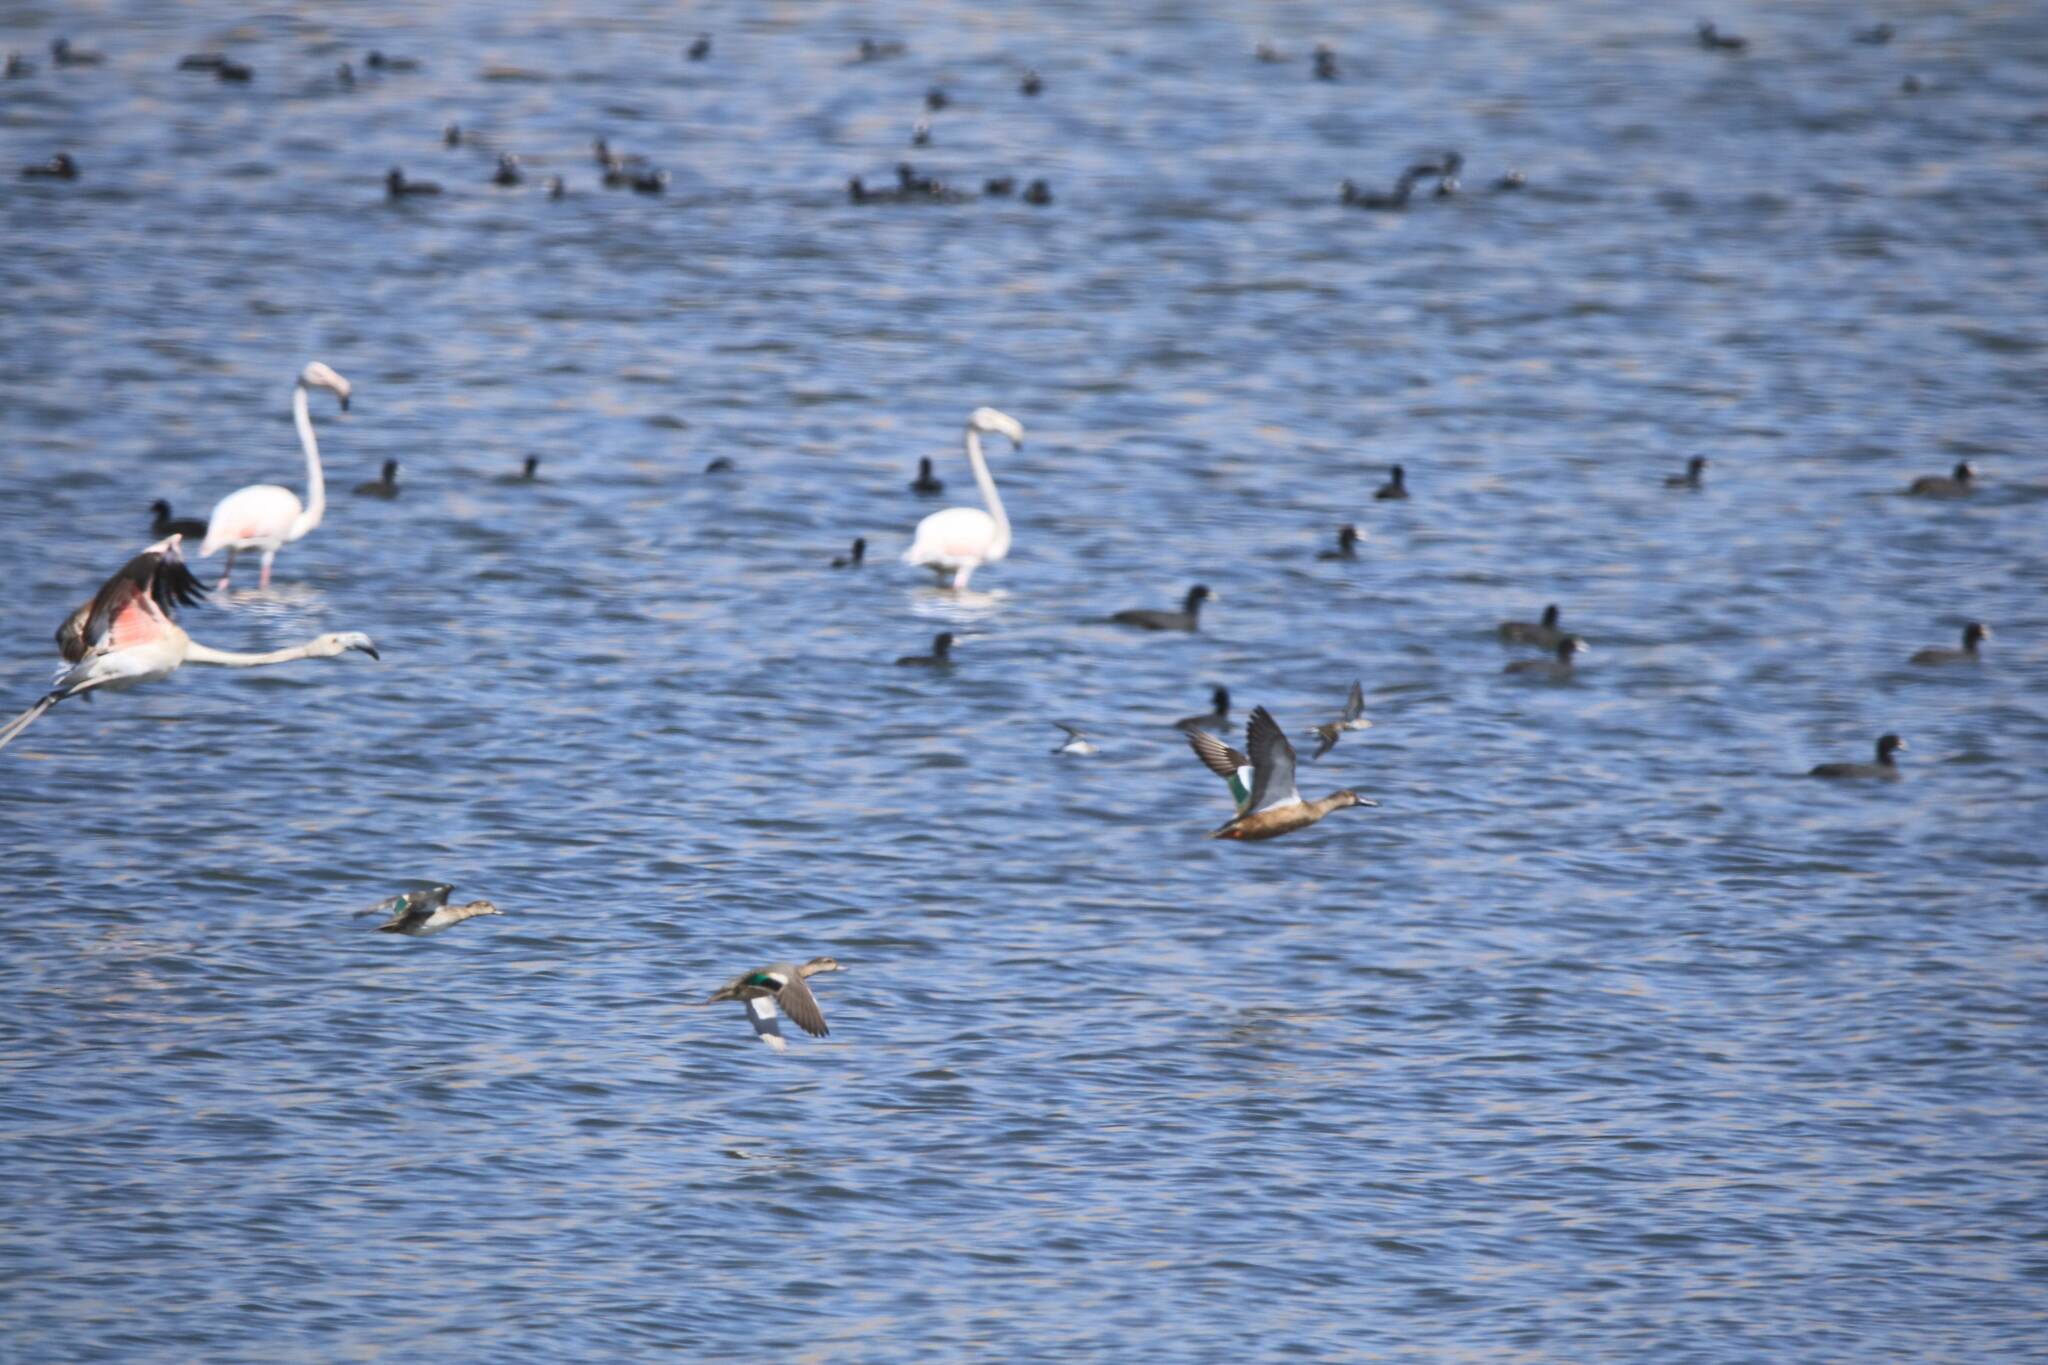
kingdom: Animalia
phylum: Chordata
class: Aves
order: Phoenicopteriformes
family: Phoenicopteridae
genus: Phoenicopterus
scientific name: Phoenicopterus roseus
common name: Greater flamingo
